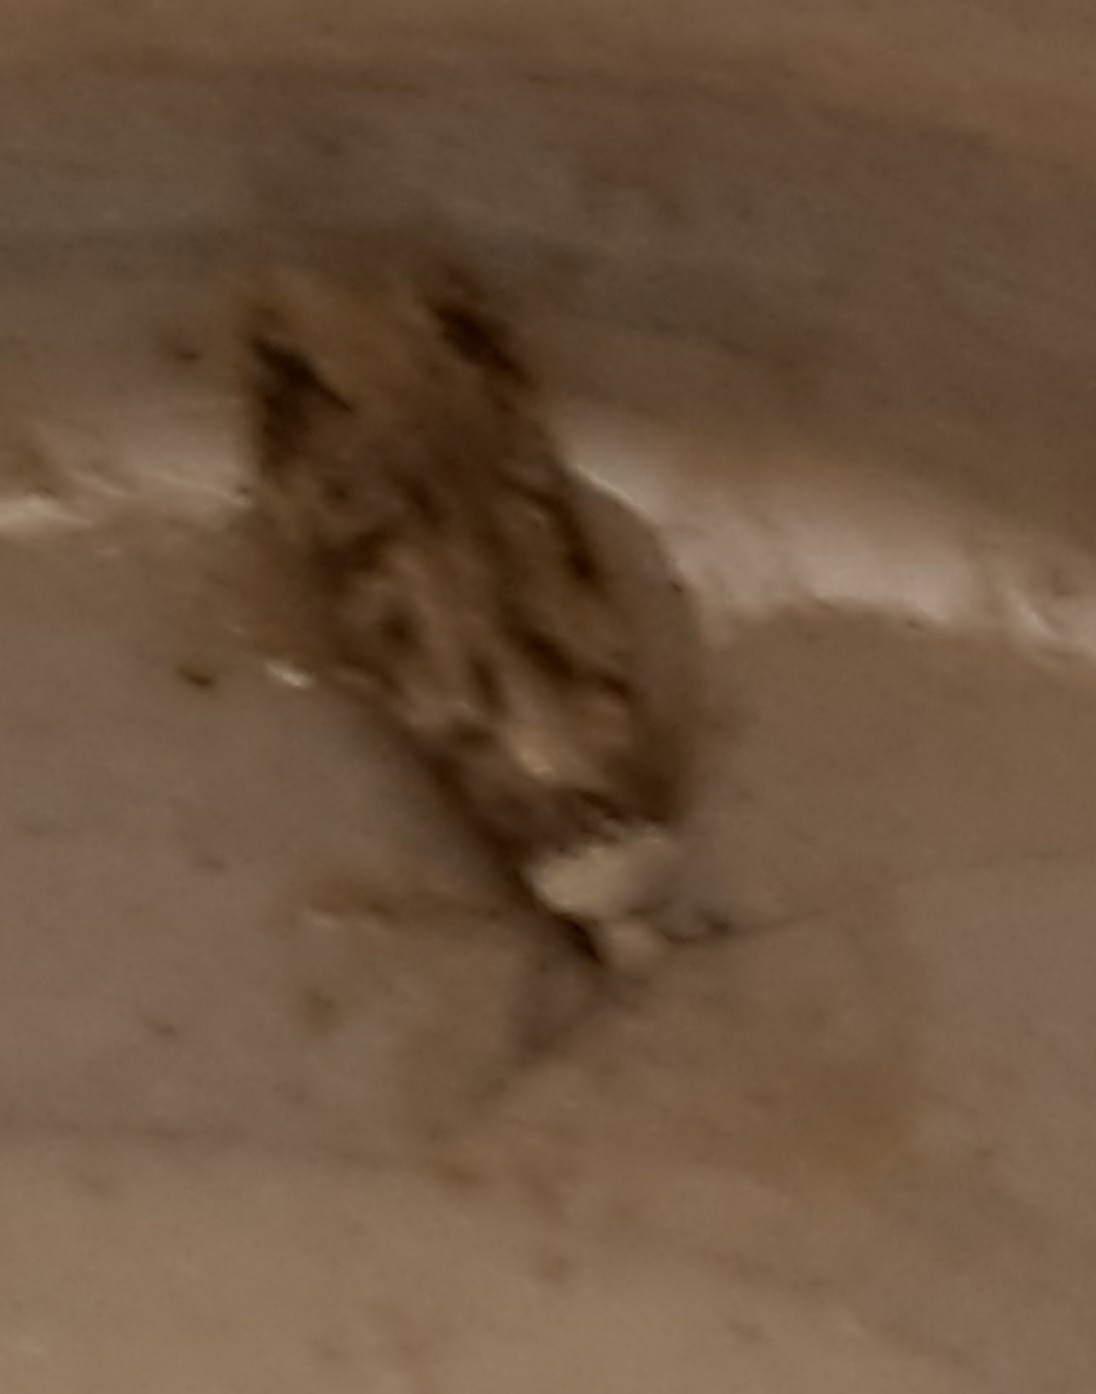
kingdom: Animalia
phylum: Arthropoda
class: Insecta
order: Lepidoptera
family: Oecophoridae
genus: Endrosis
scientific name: Endrosis sarcitrella
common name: White-shouldered house moth
